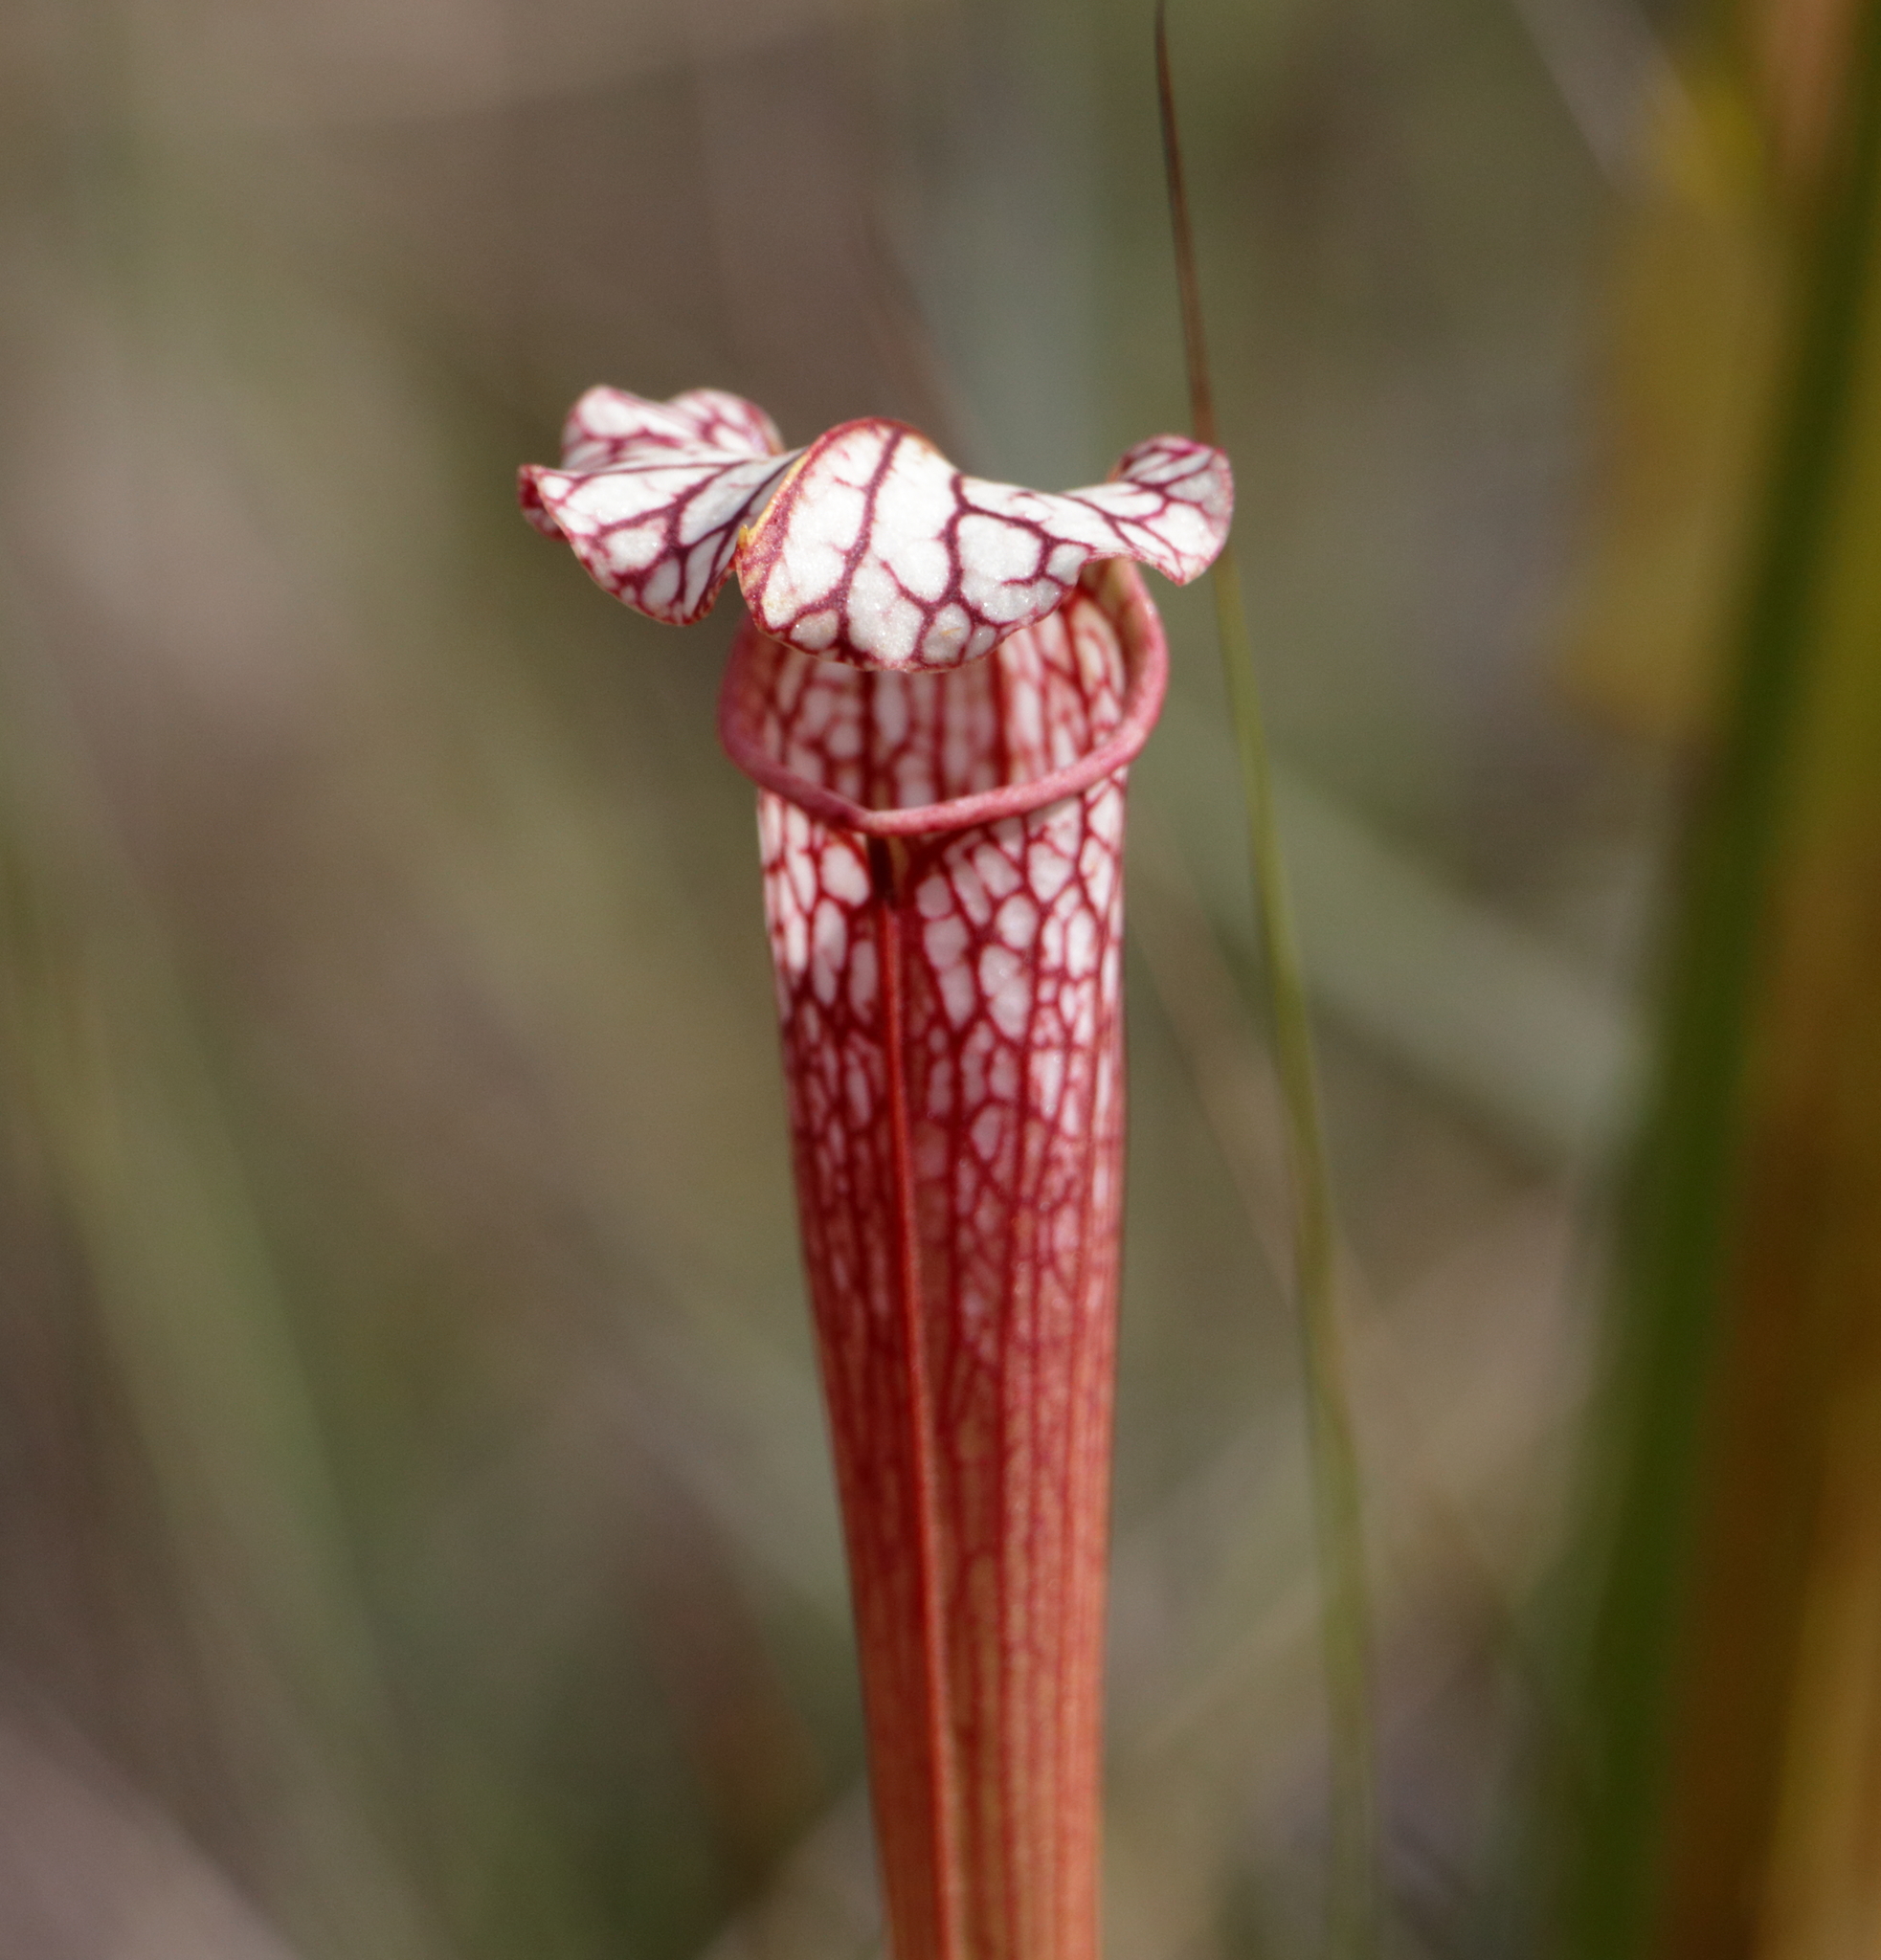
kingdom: Plantae
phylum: Tracheophyta
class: Magnoliopsida
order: Ericales
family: Sarraceniaceae
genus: Sarracenia
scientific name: Sarracenia areolata
